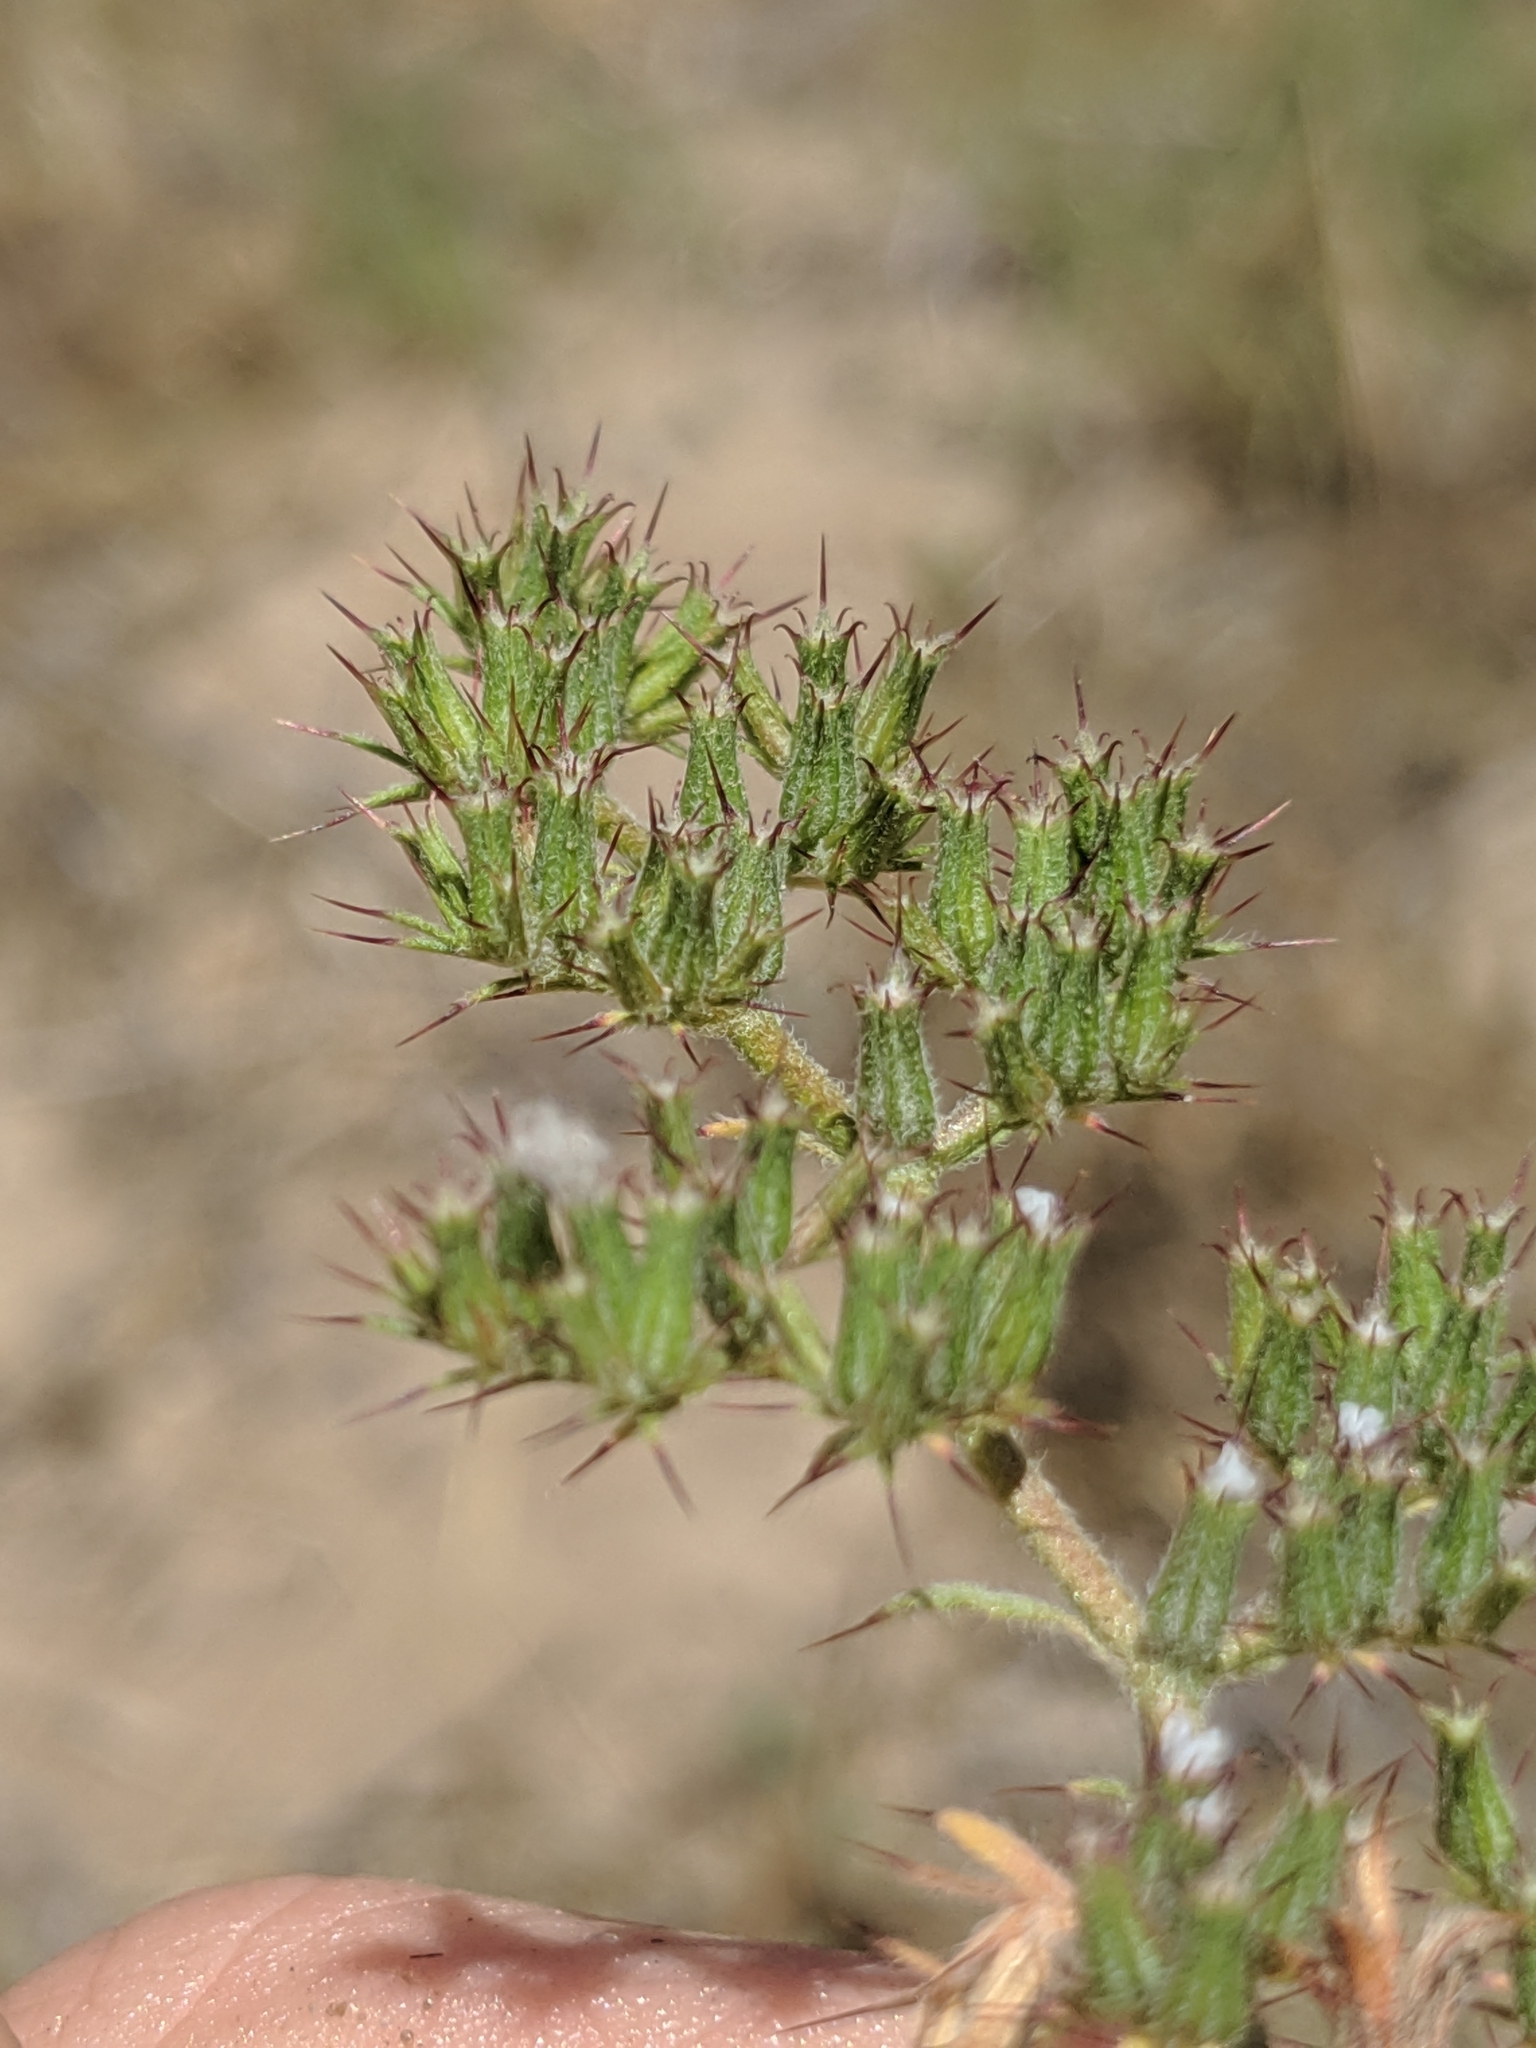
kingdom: Plantae
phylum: Tracheophyta
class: Magnoliopsida
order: Caryophyllales
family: Polygonaceae
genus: Chorizanthe
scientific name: Chorizanthe obovata
